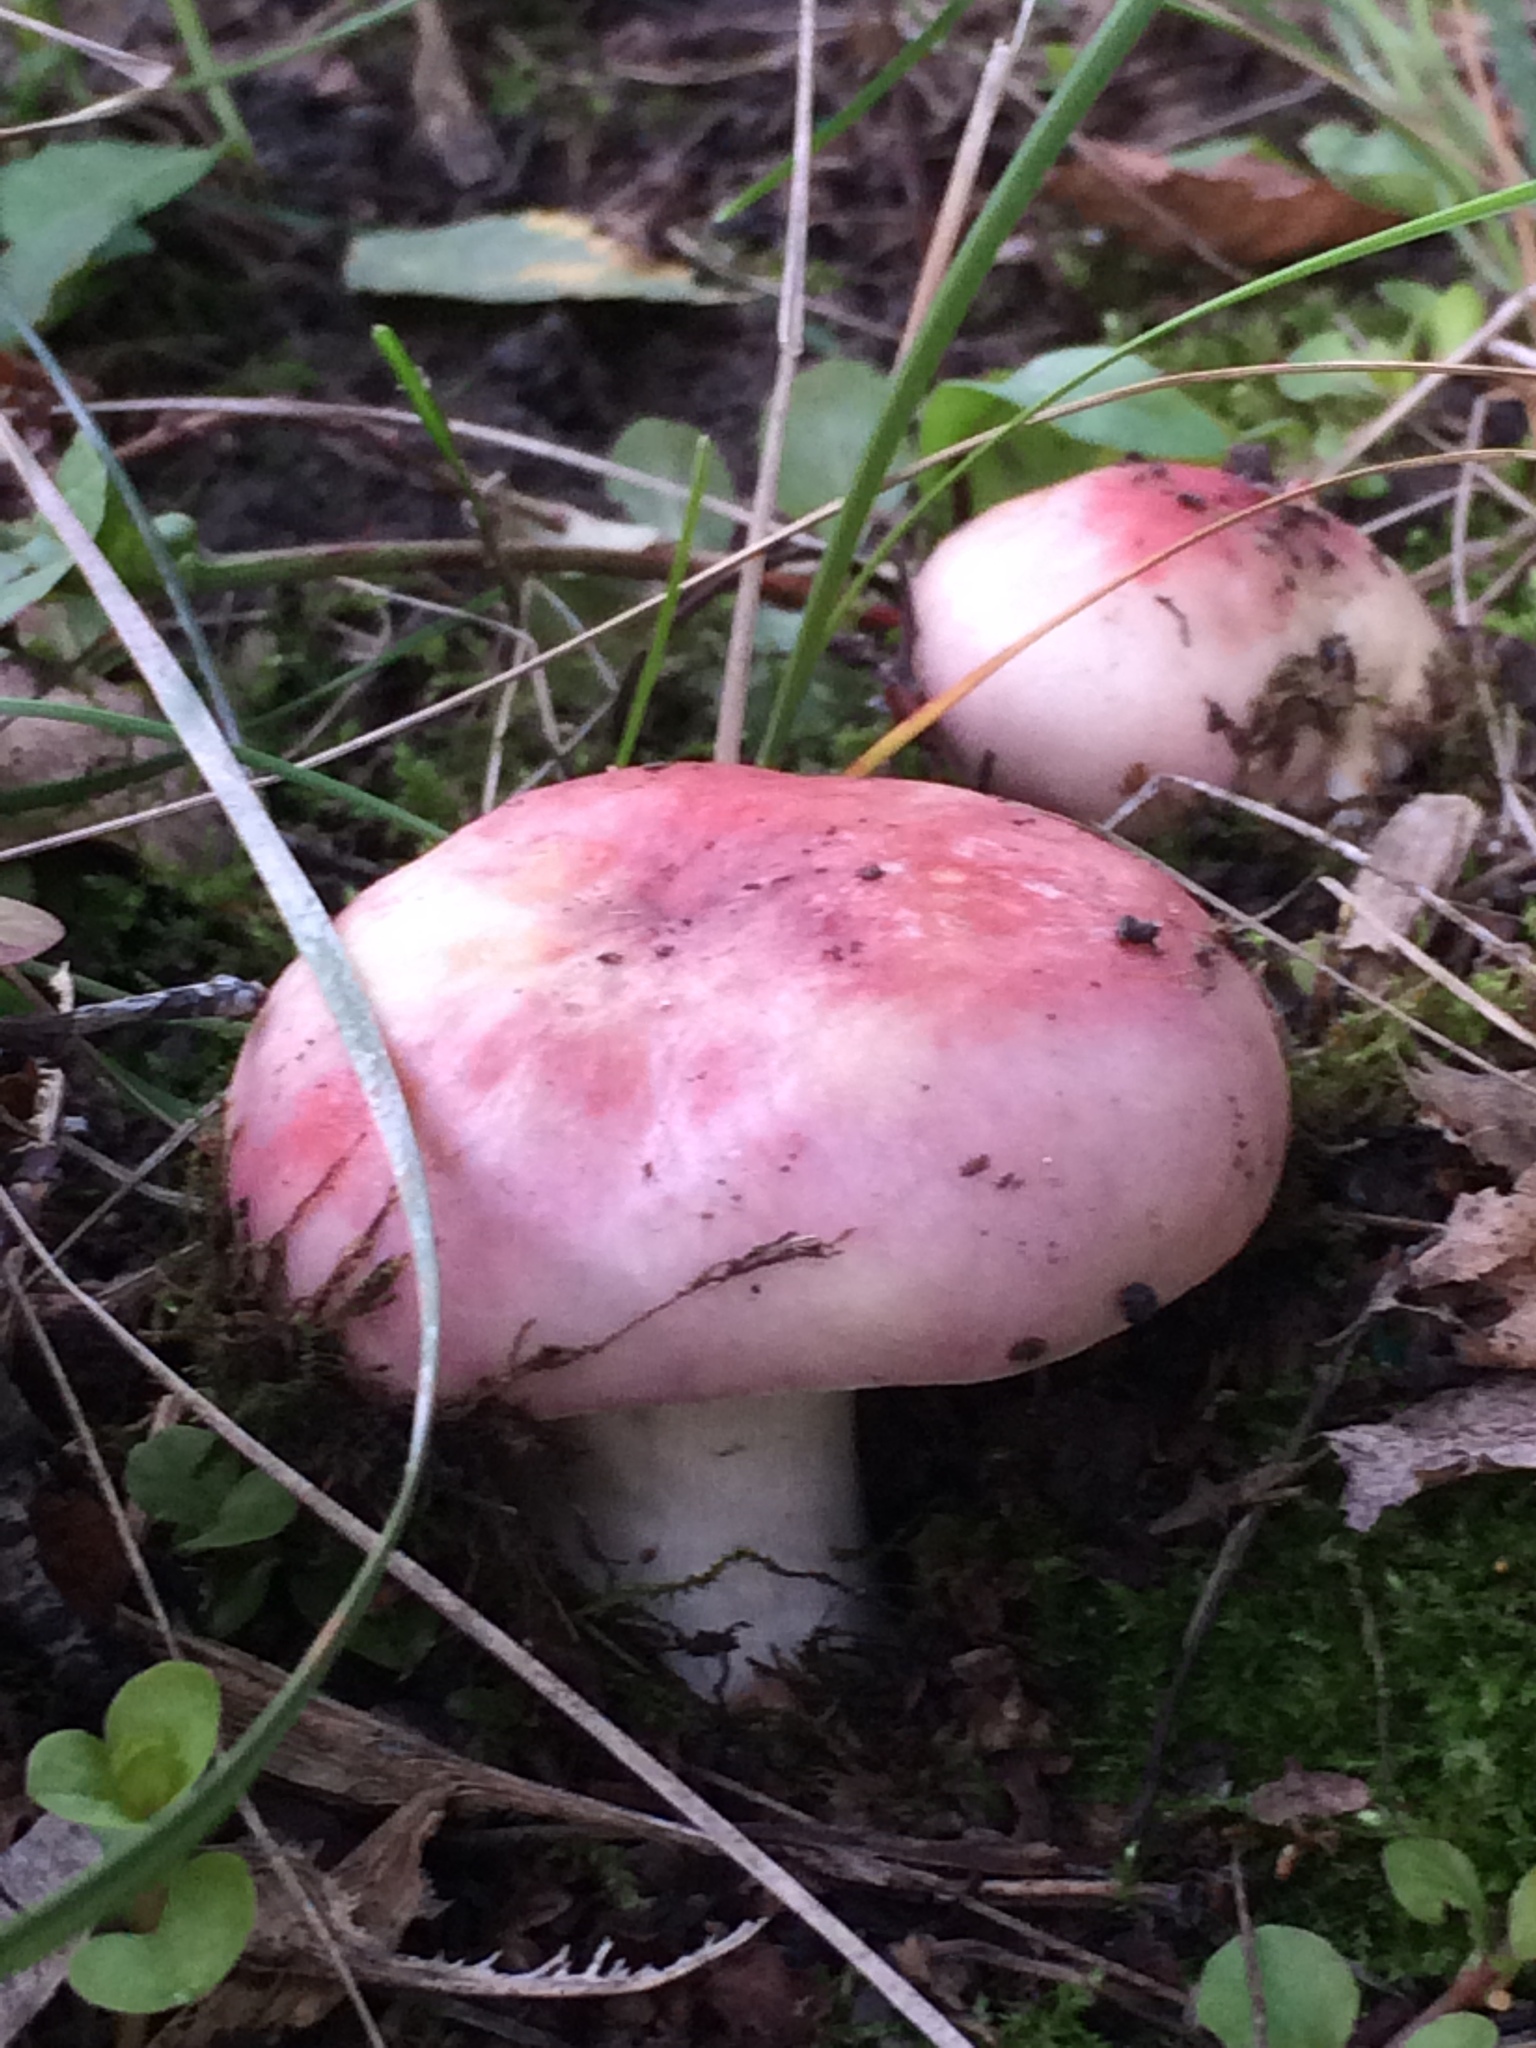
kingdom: Fungi
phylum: Basidiomycota
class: Agaricomycetes
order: Russulales
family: Russulaceae
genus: Russula
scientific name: Russula sanguinea
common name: Bloody brittlegill
